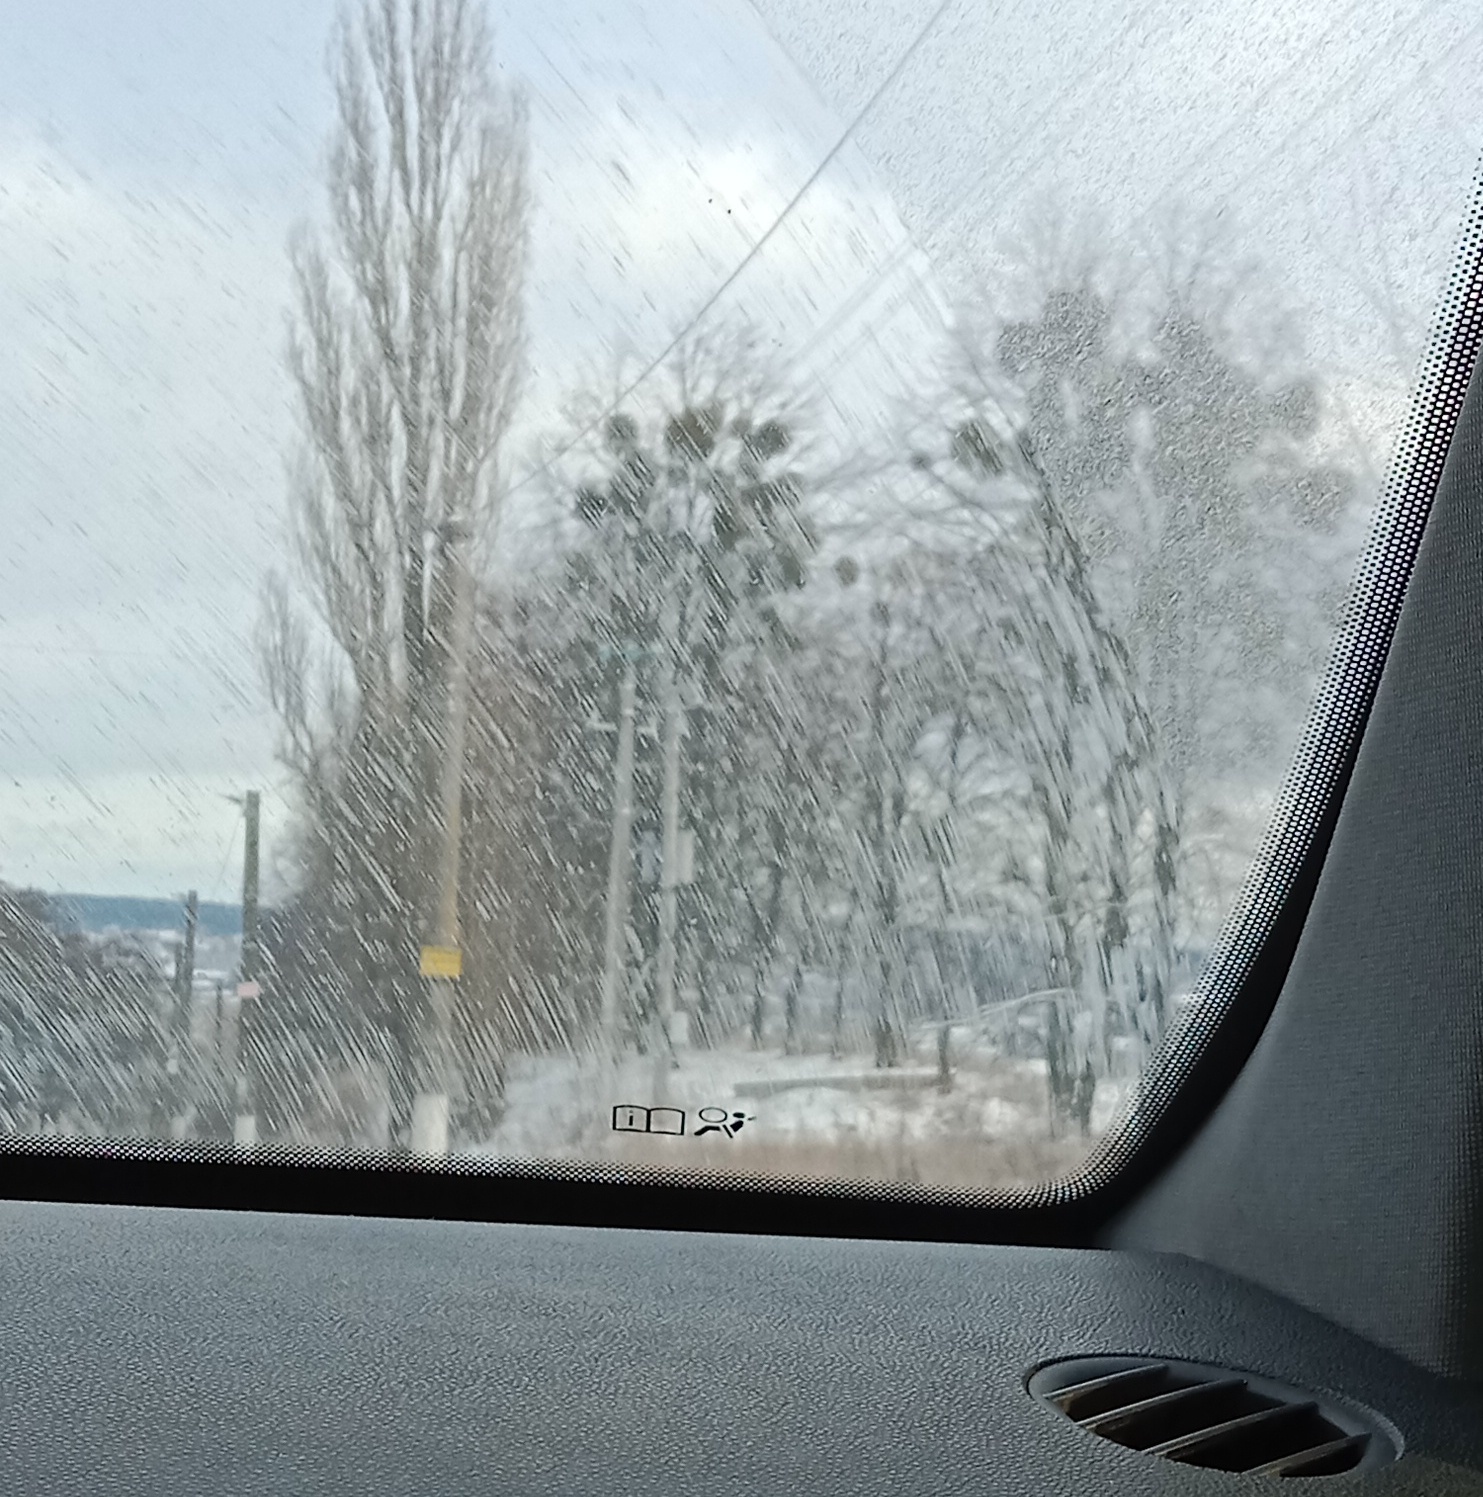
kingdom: Plantae
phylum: Tracheophyta
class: Magnoliopsida
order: Santalales
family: Viscaceae
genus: Viscum
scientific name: Viscum album
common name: Mistletoe
